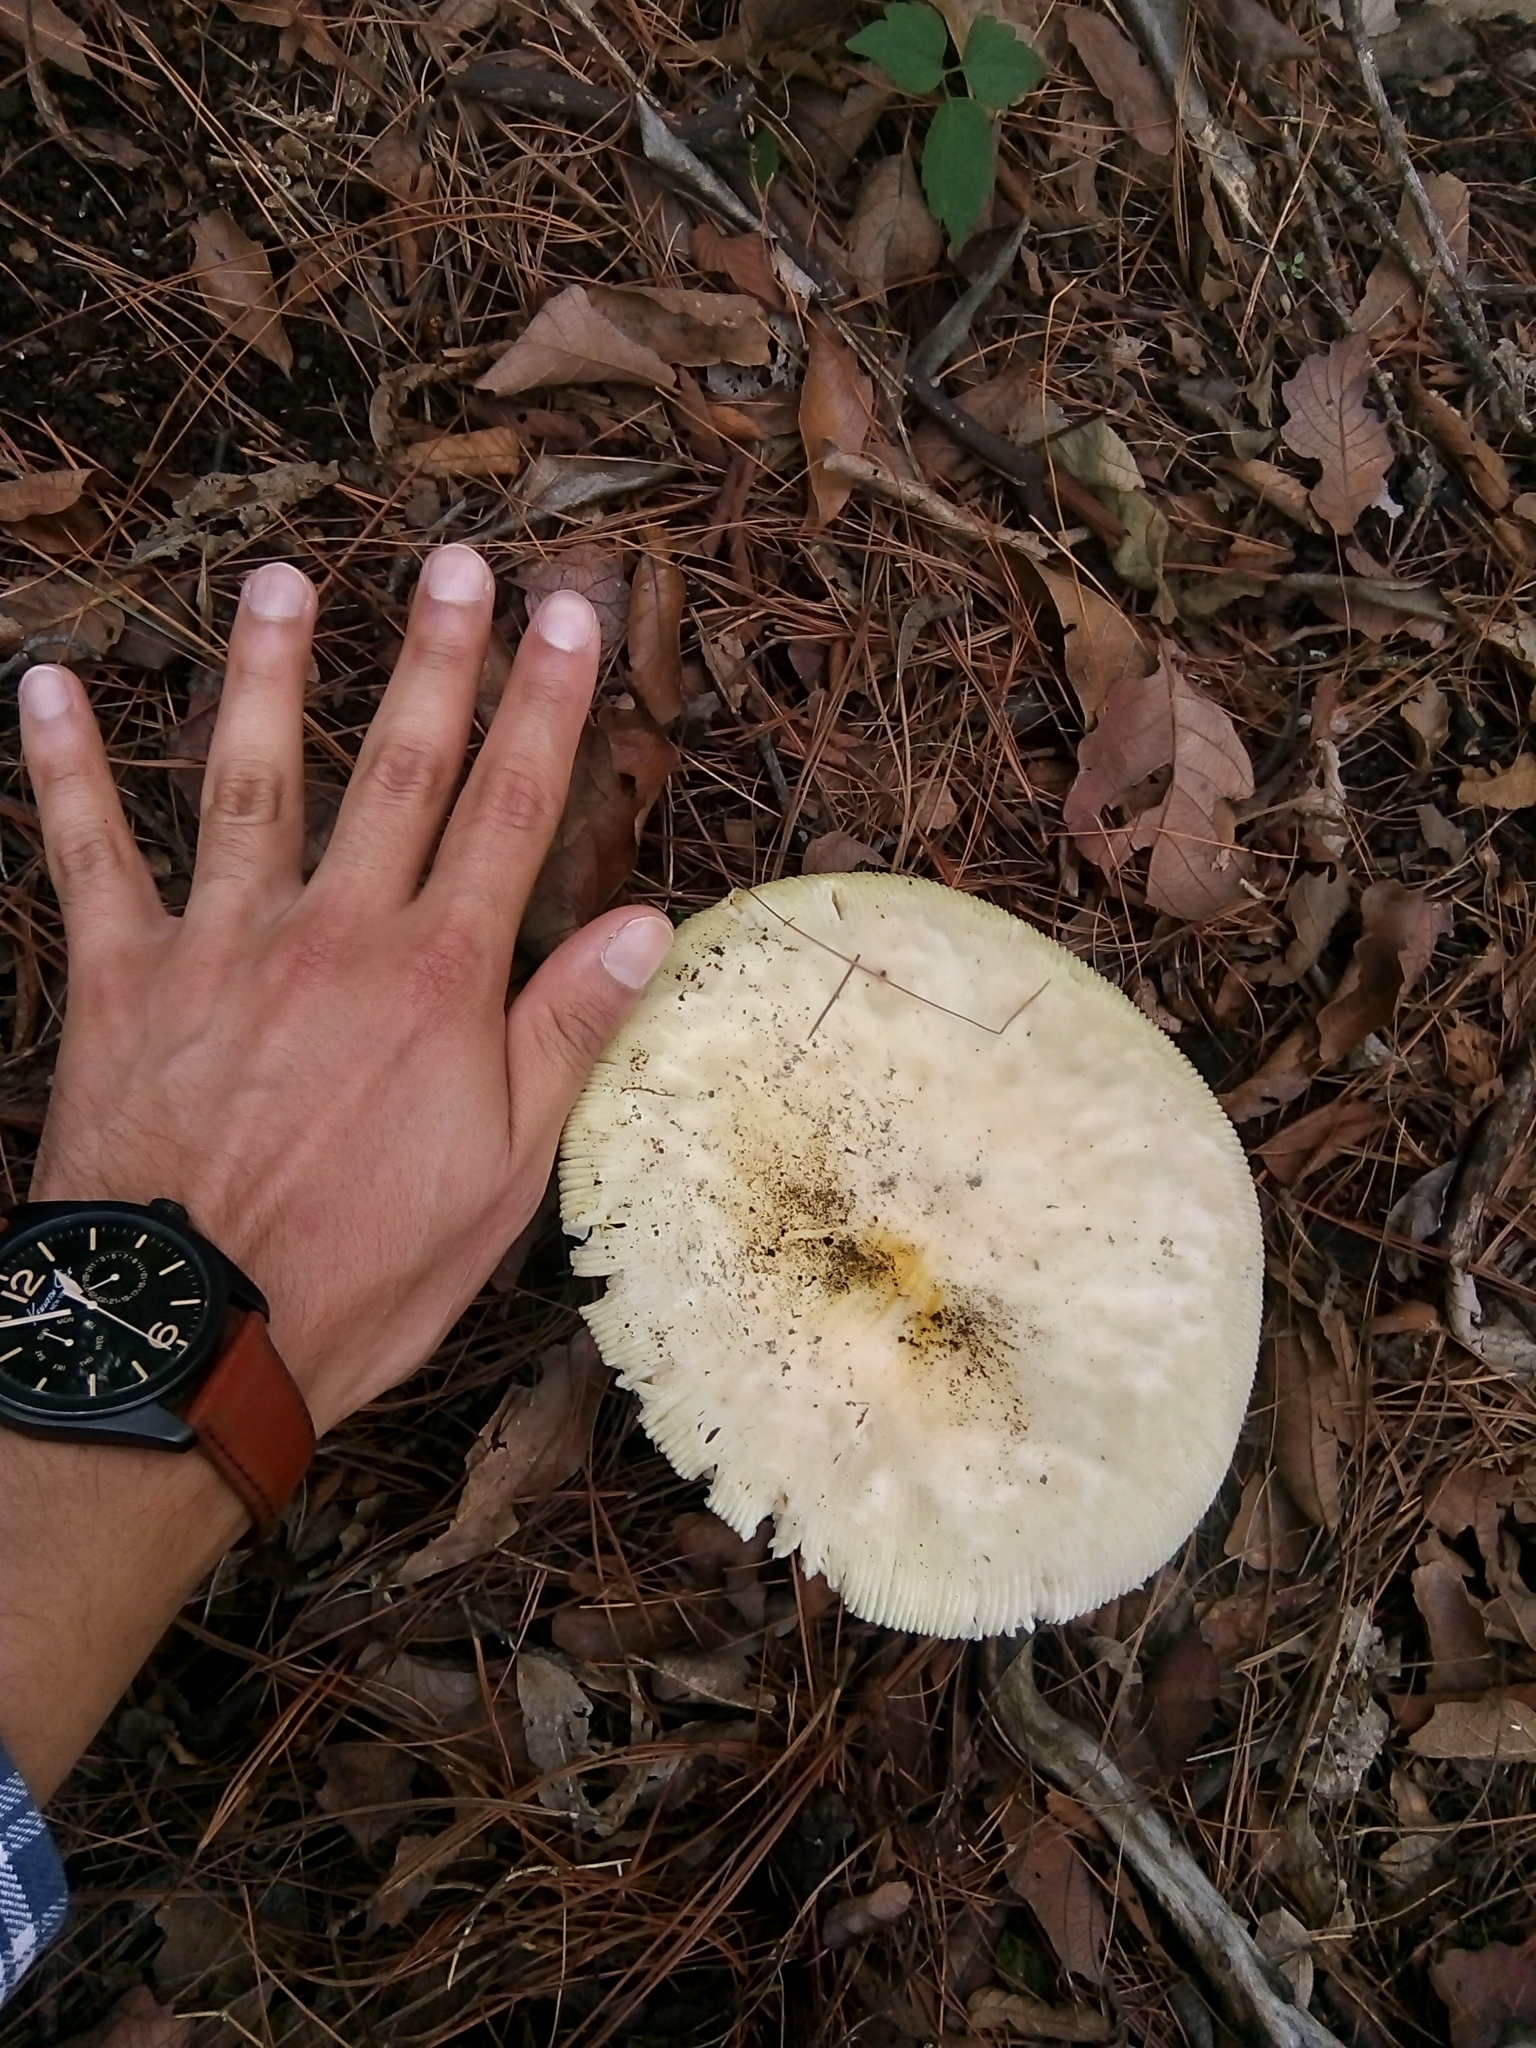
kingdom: Fungi
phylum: Basidiomycota
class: Agaricomycetes
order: Agaricales
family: Amanitaceae
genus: Amanita
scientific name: Amanita laurae
